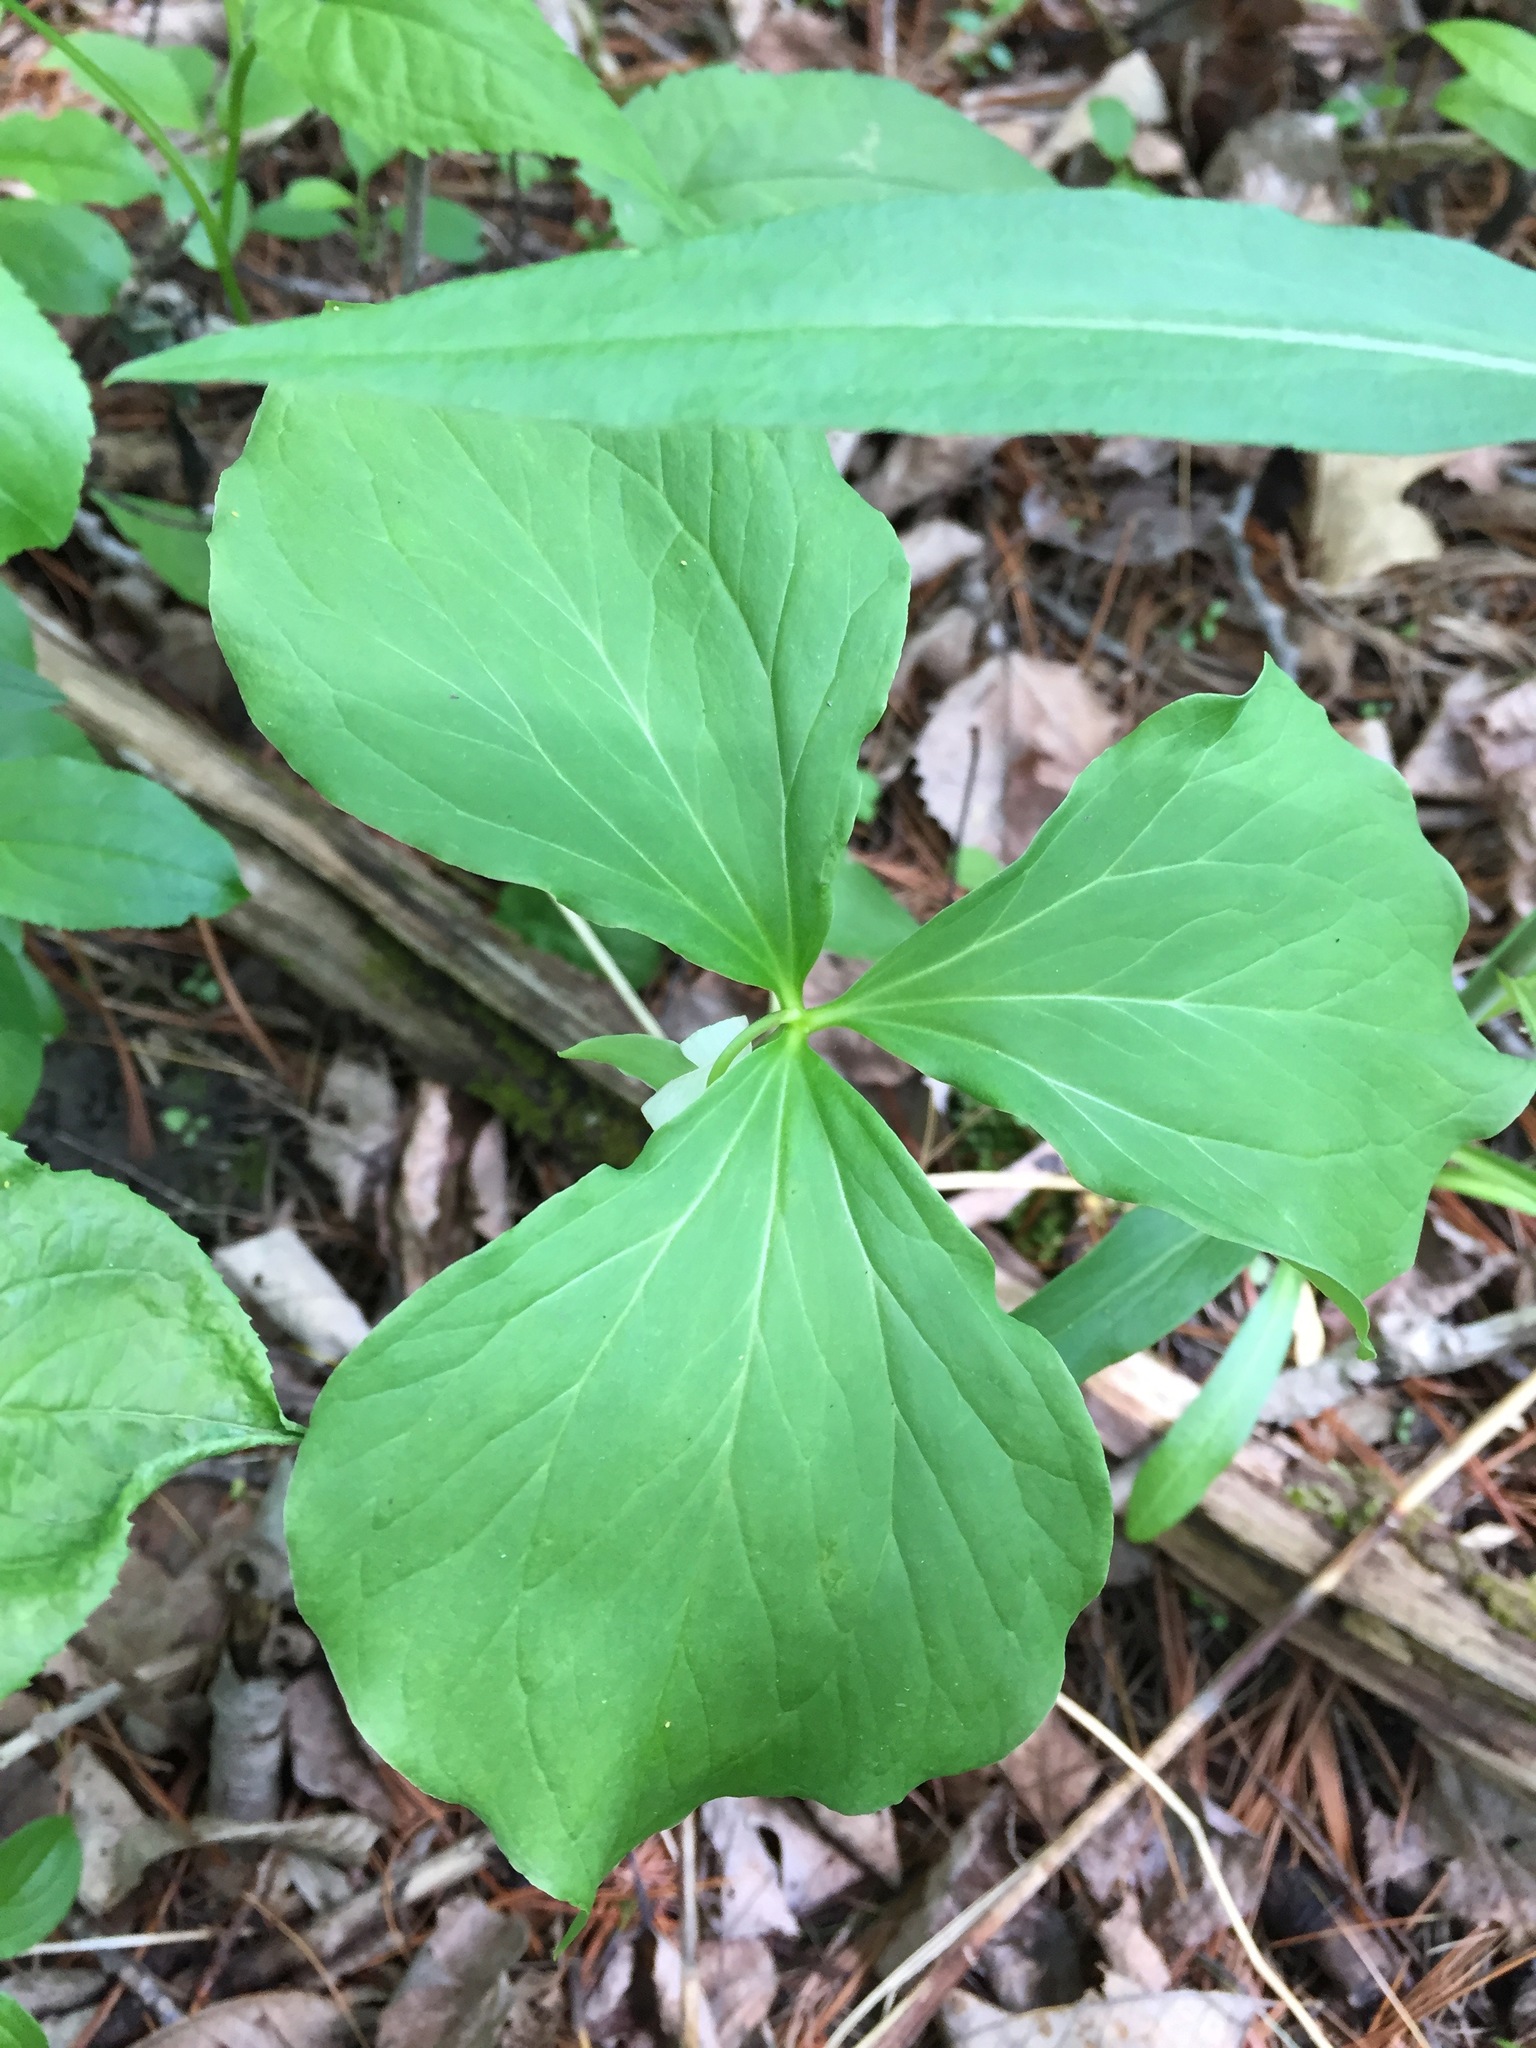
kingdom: Plantae
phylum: Tracheophyta
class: Liliopsida
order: Liliales
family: Melanthiaceae
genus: Trillium
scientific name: Trillium cernuum
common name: Nodding trillium
